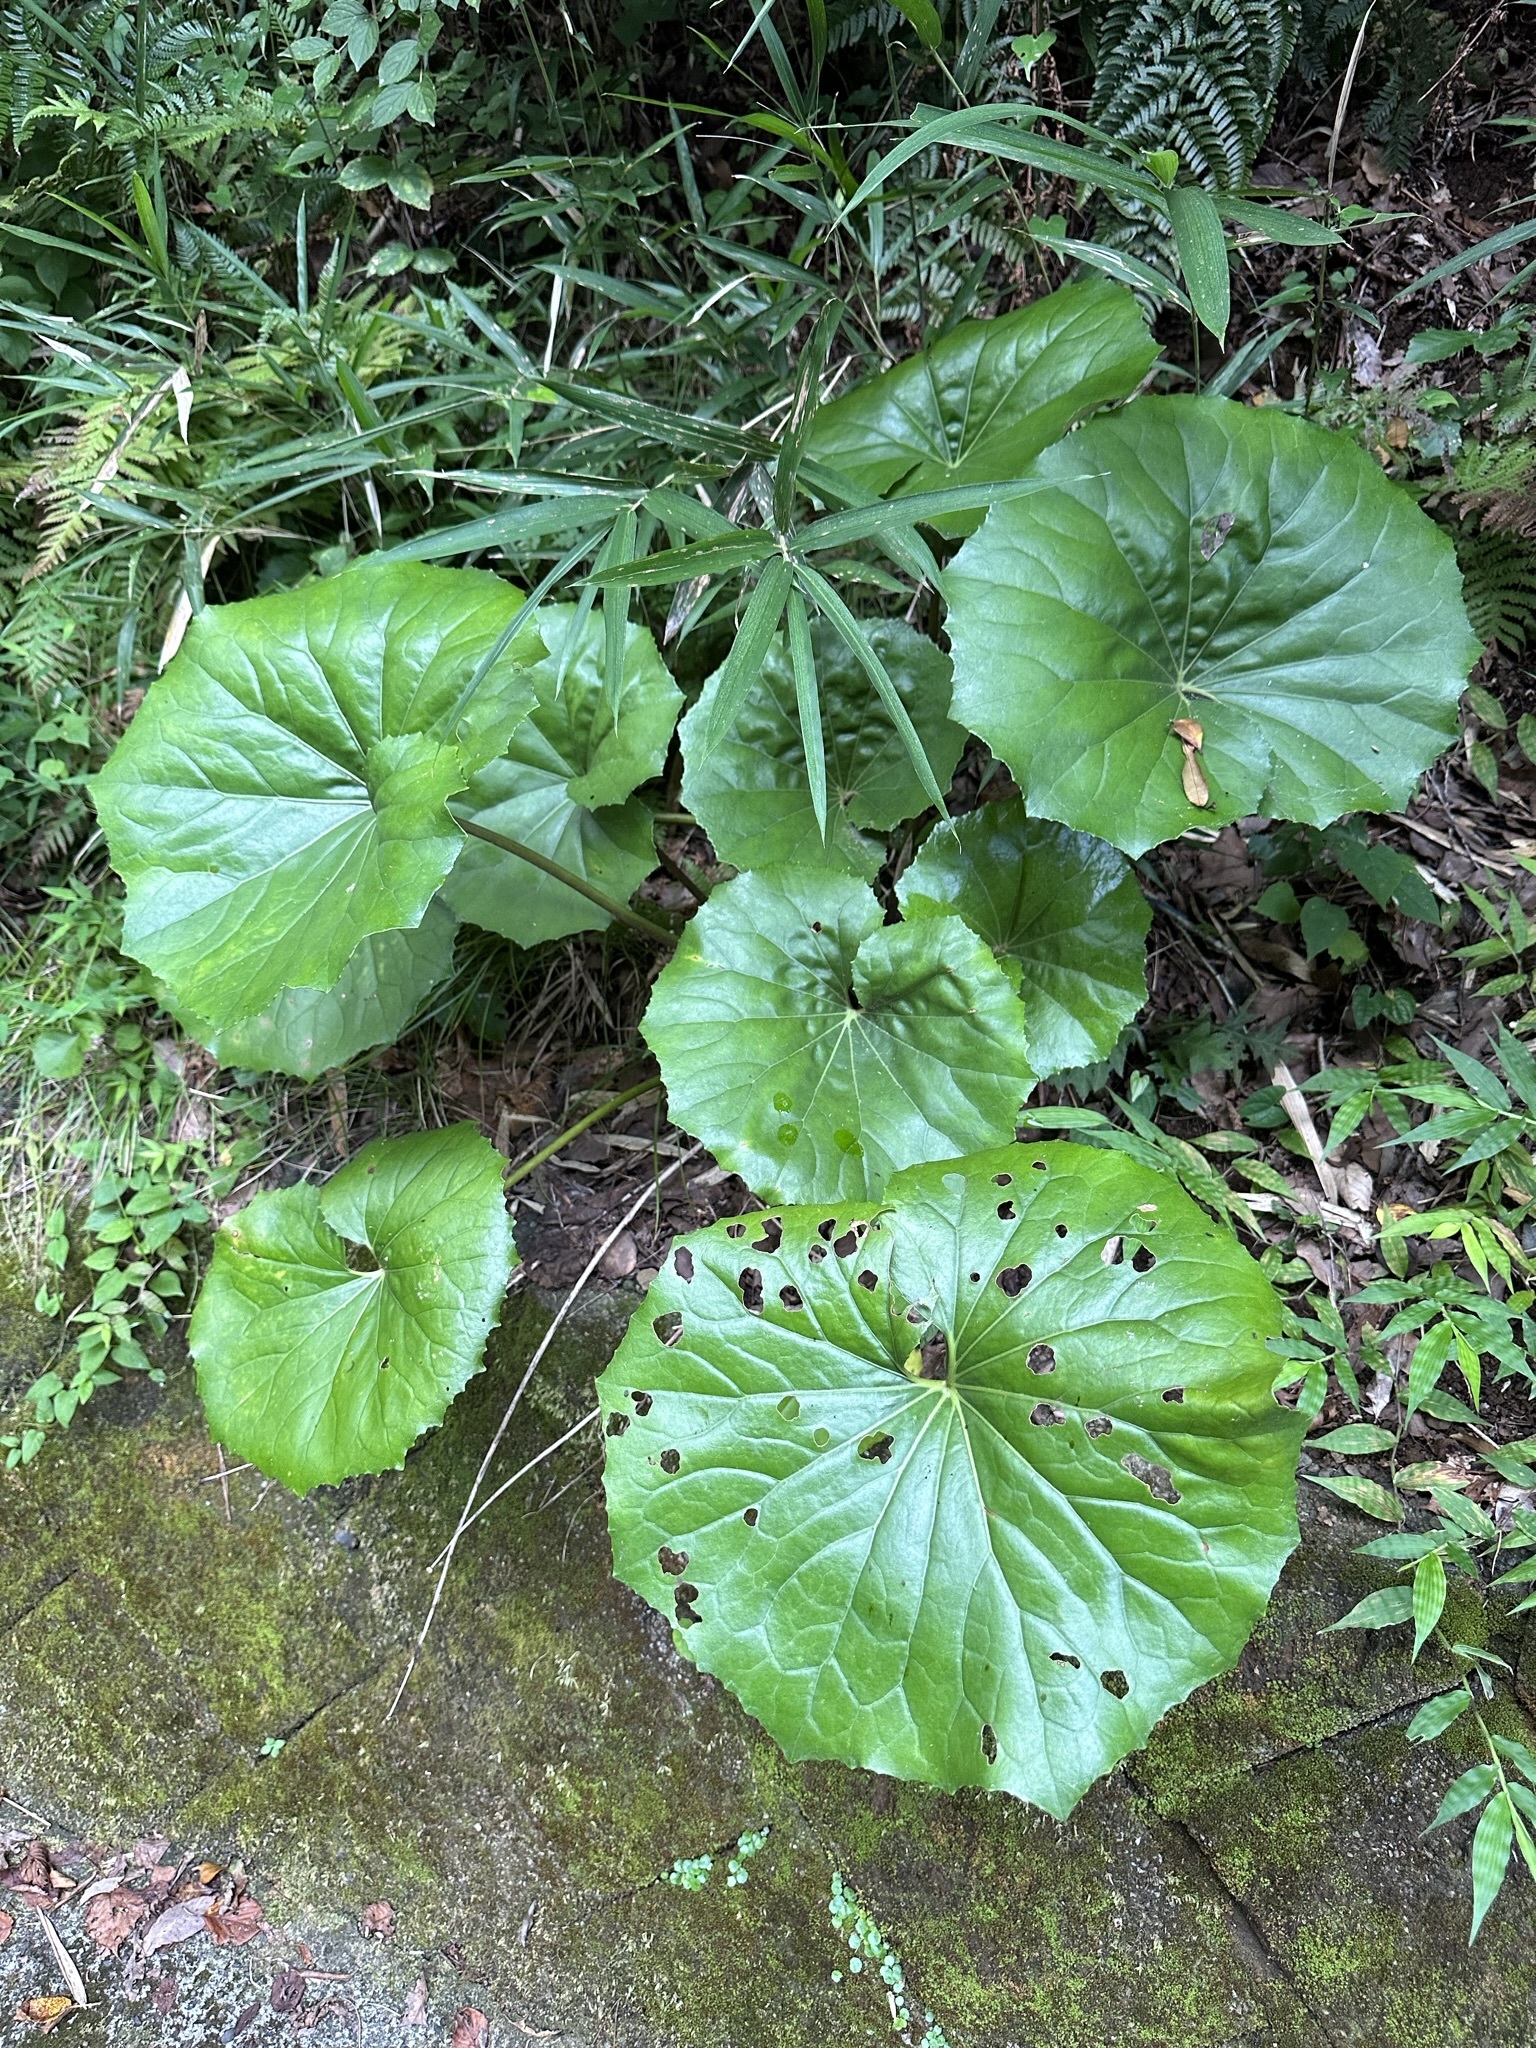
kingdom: Plantae
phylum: Tracheophyta
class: Magnoliopsida
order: Asterales
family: Asteraceae
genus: Farfugium
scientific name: Farfugium japonicum
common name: Leopardplant
